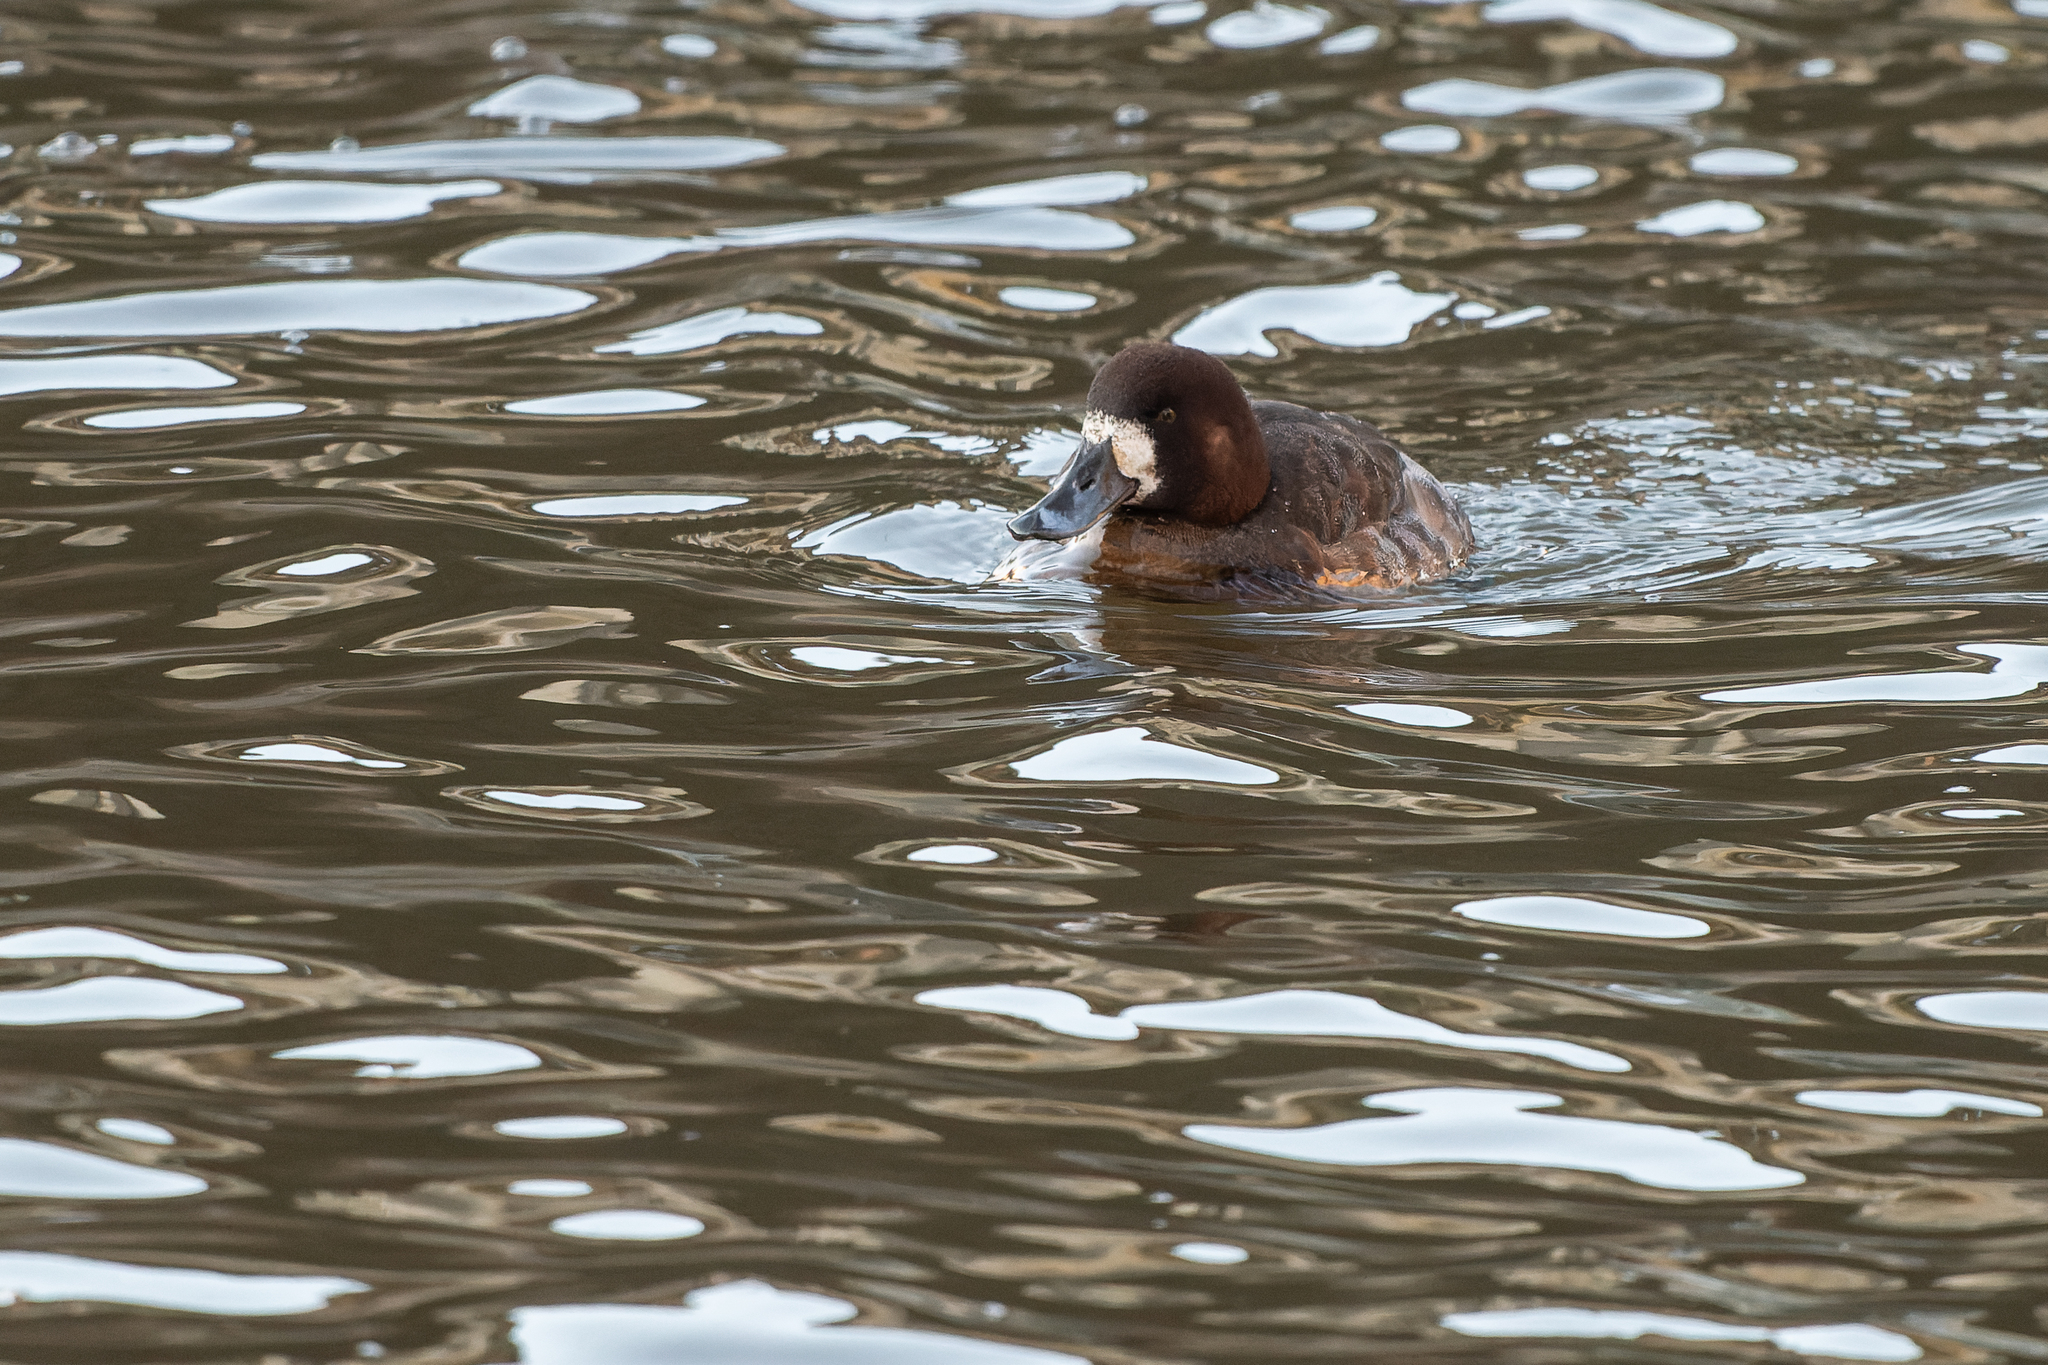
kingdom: Animalia
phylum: Chordata
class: Aves
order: Anseriformes
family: Anatidae
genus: Aythya
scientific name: Aythya marila
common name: Greater scaup
